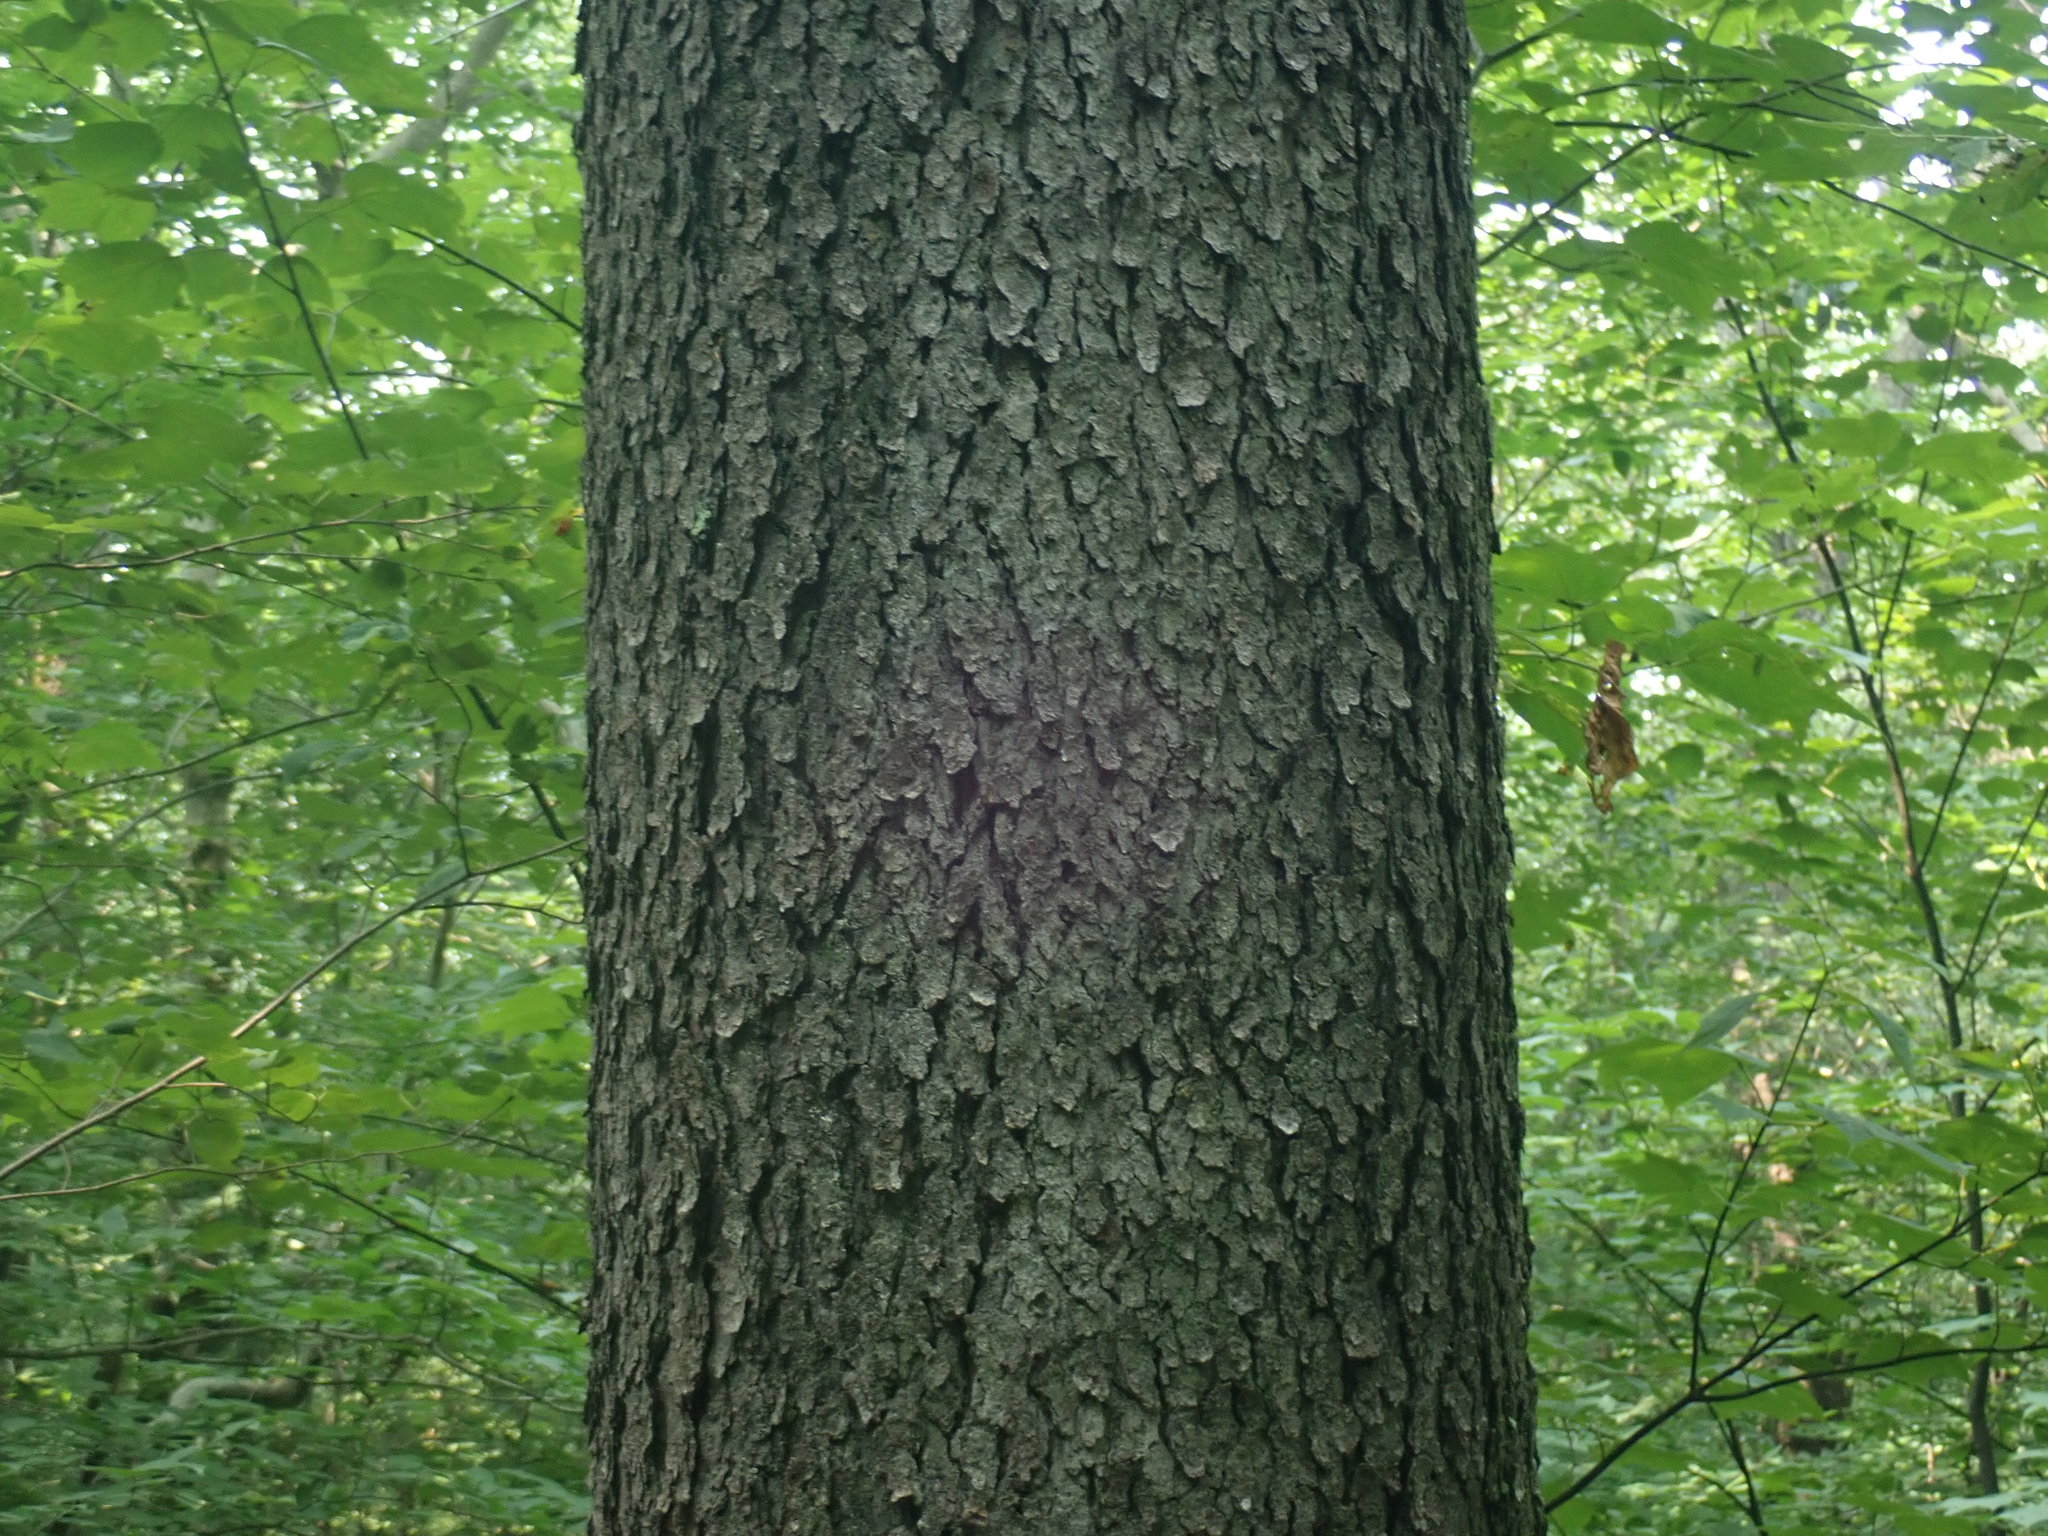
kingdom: Plantae
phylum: Tracheophyta
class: Magnoliopsida
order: Rosales
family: Rosaceae
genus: Prunus
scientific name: Prunus serotina
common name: Black cherry
